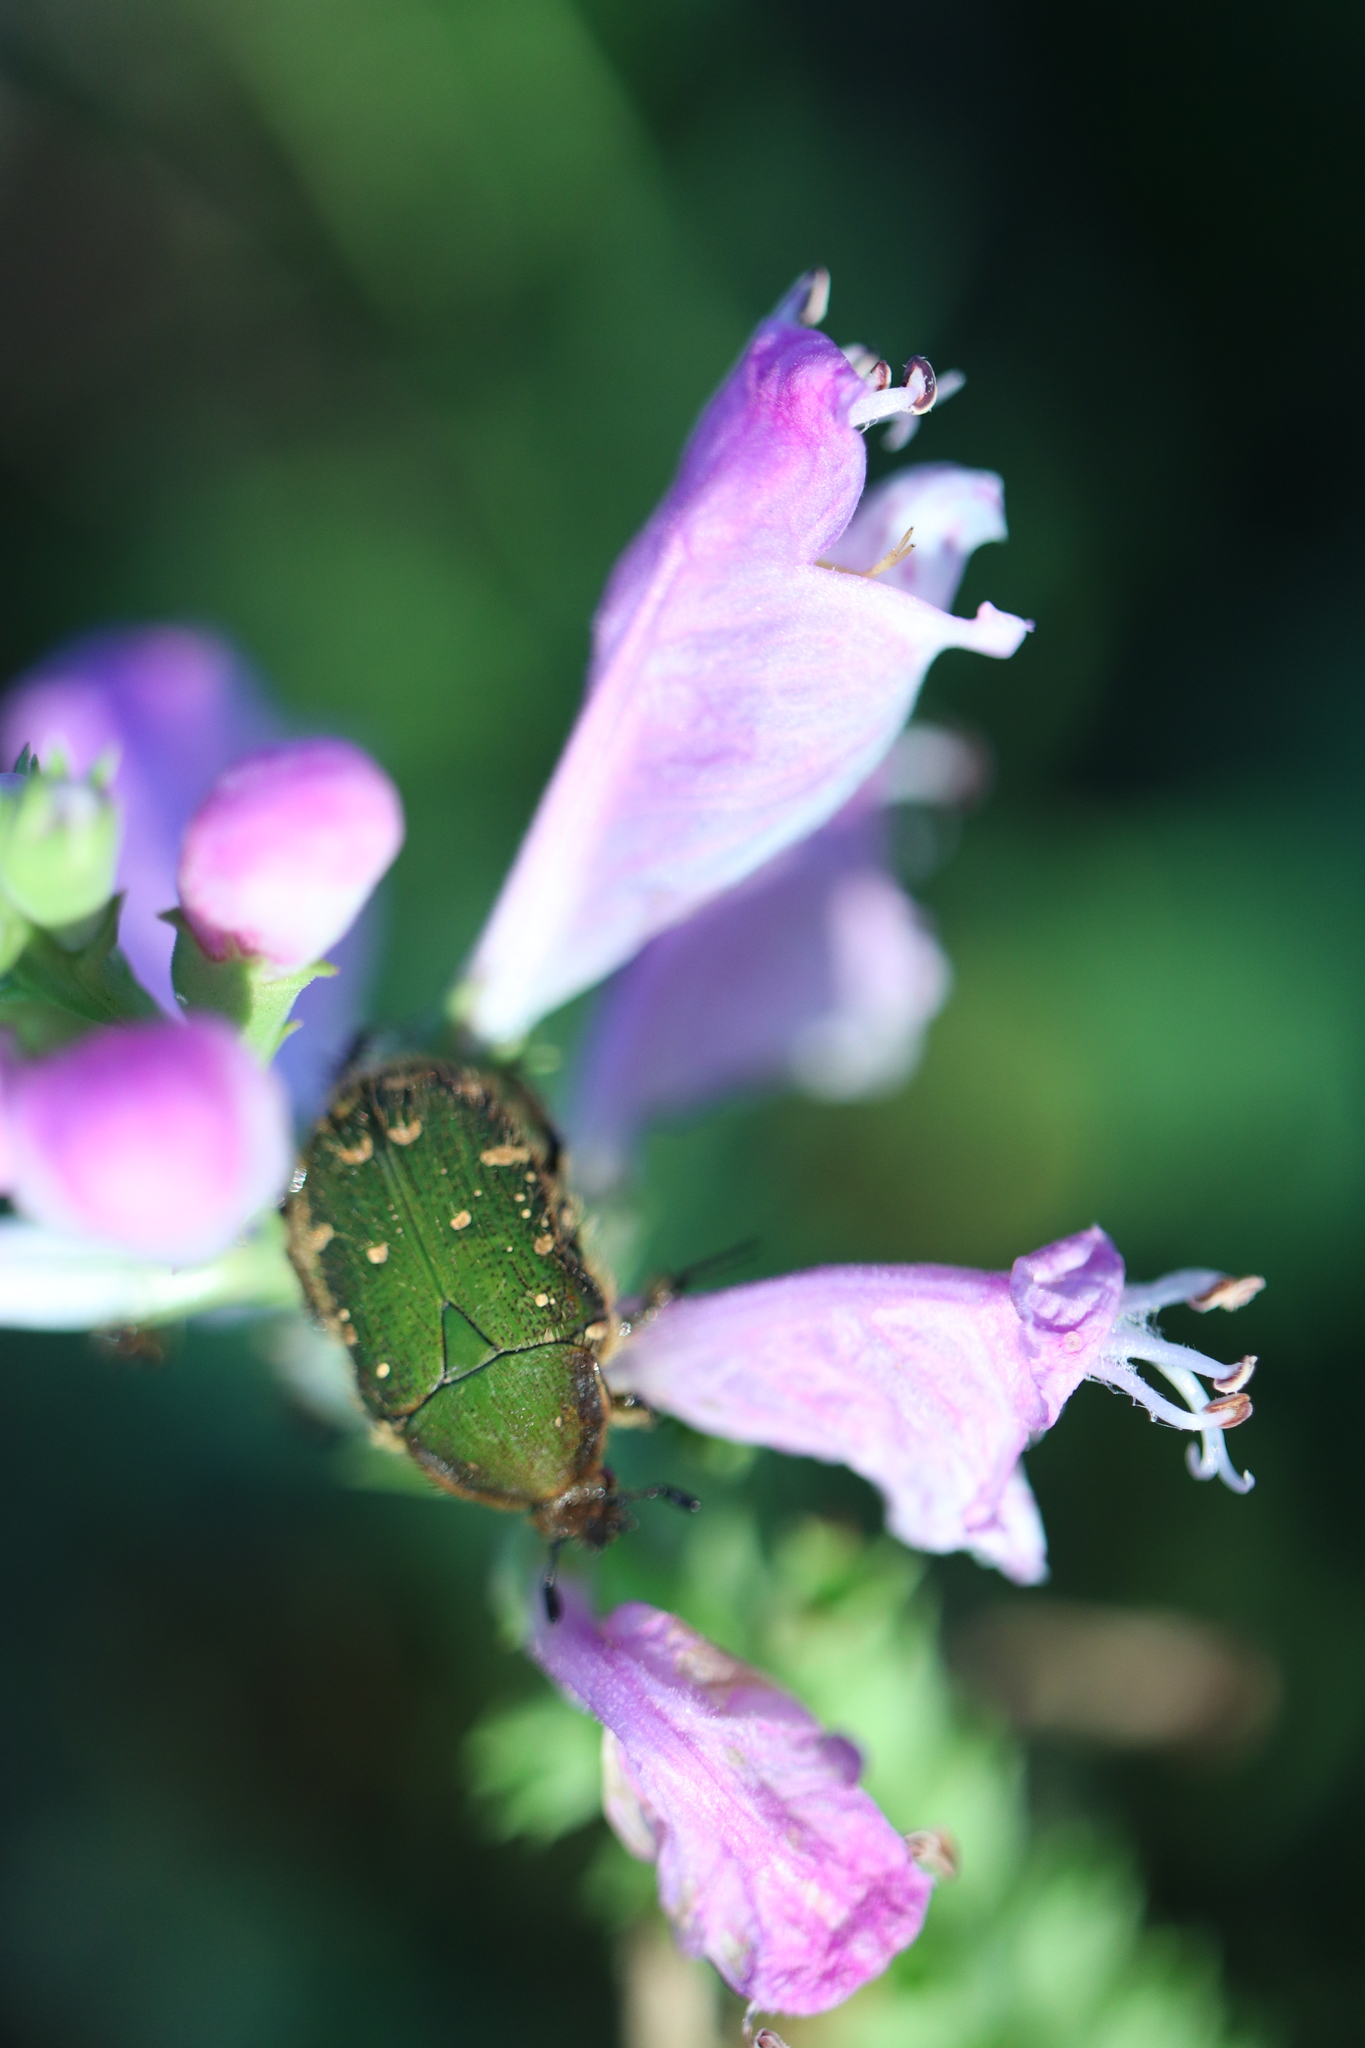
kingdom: Animalia
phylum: Arthropoda
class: Insecta
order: Coleoptera
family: Scarabaeidae
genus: Gametis
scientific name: Gametis jucunda
